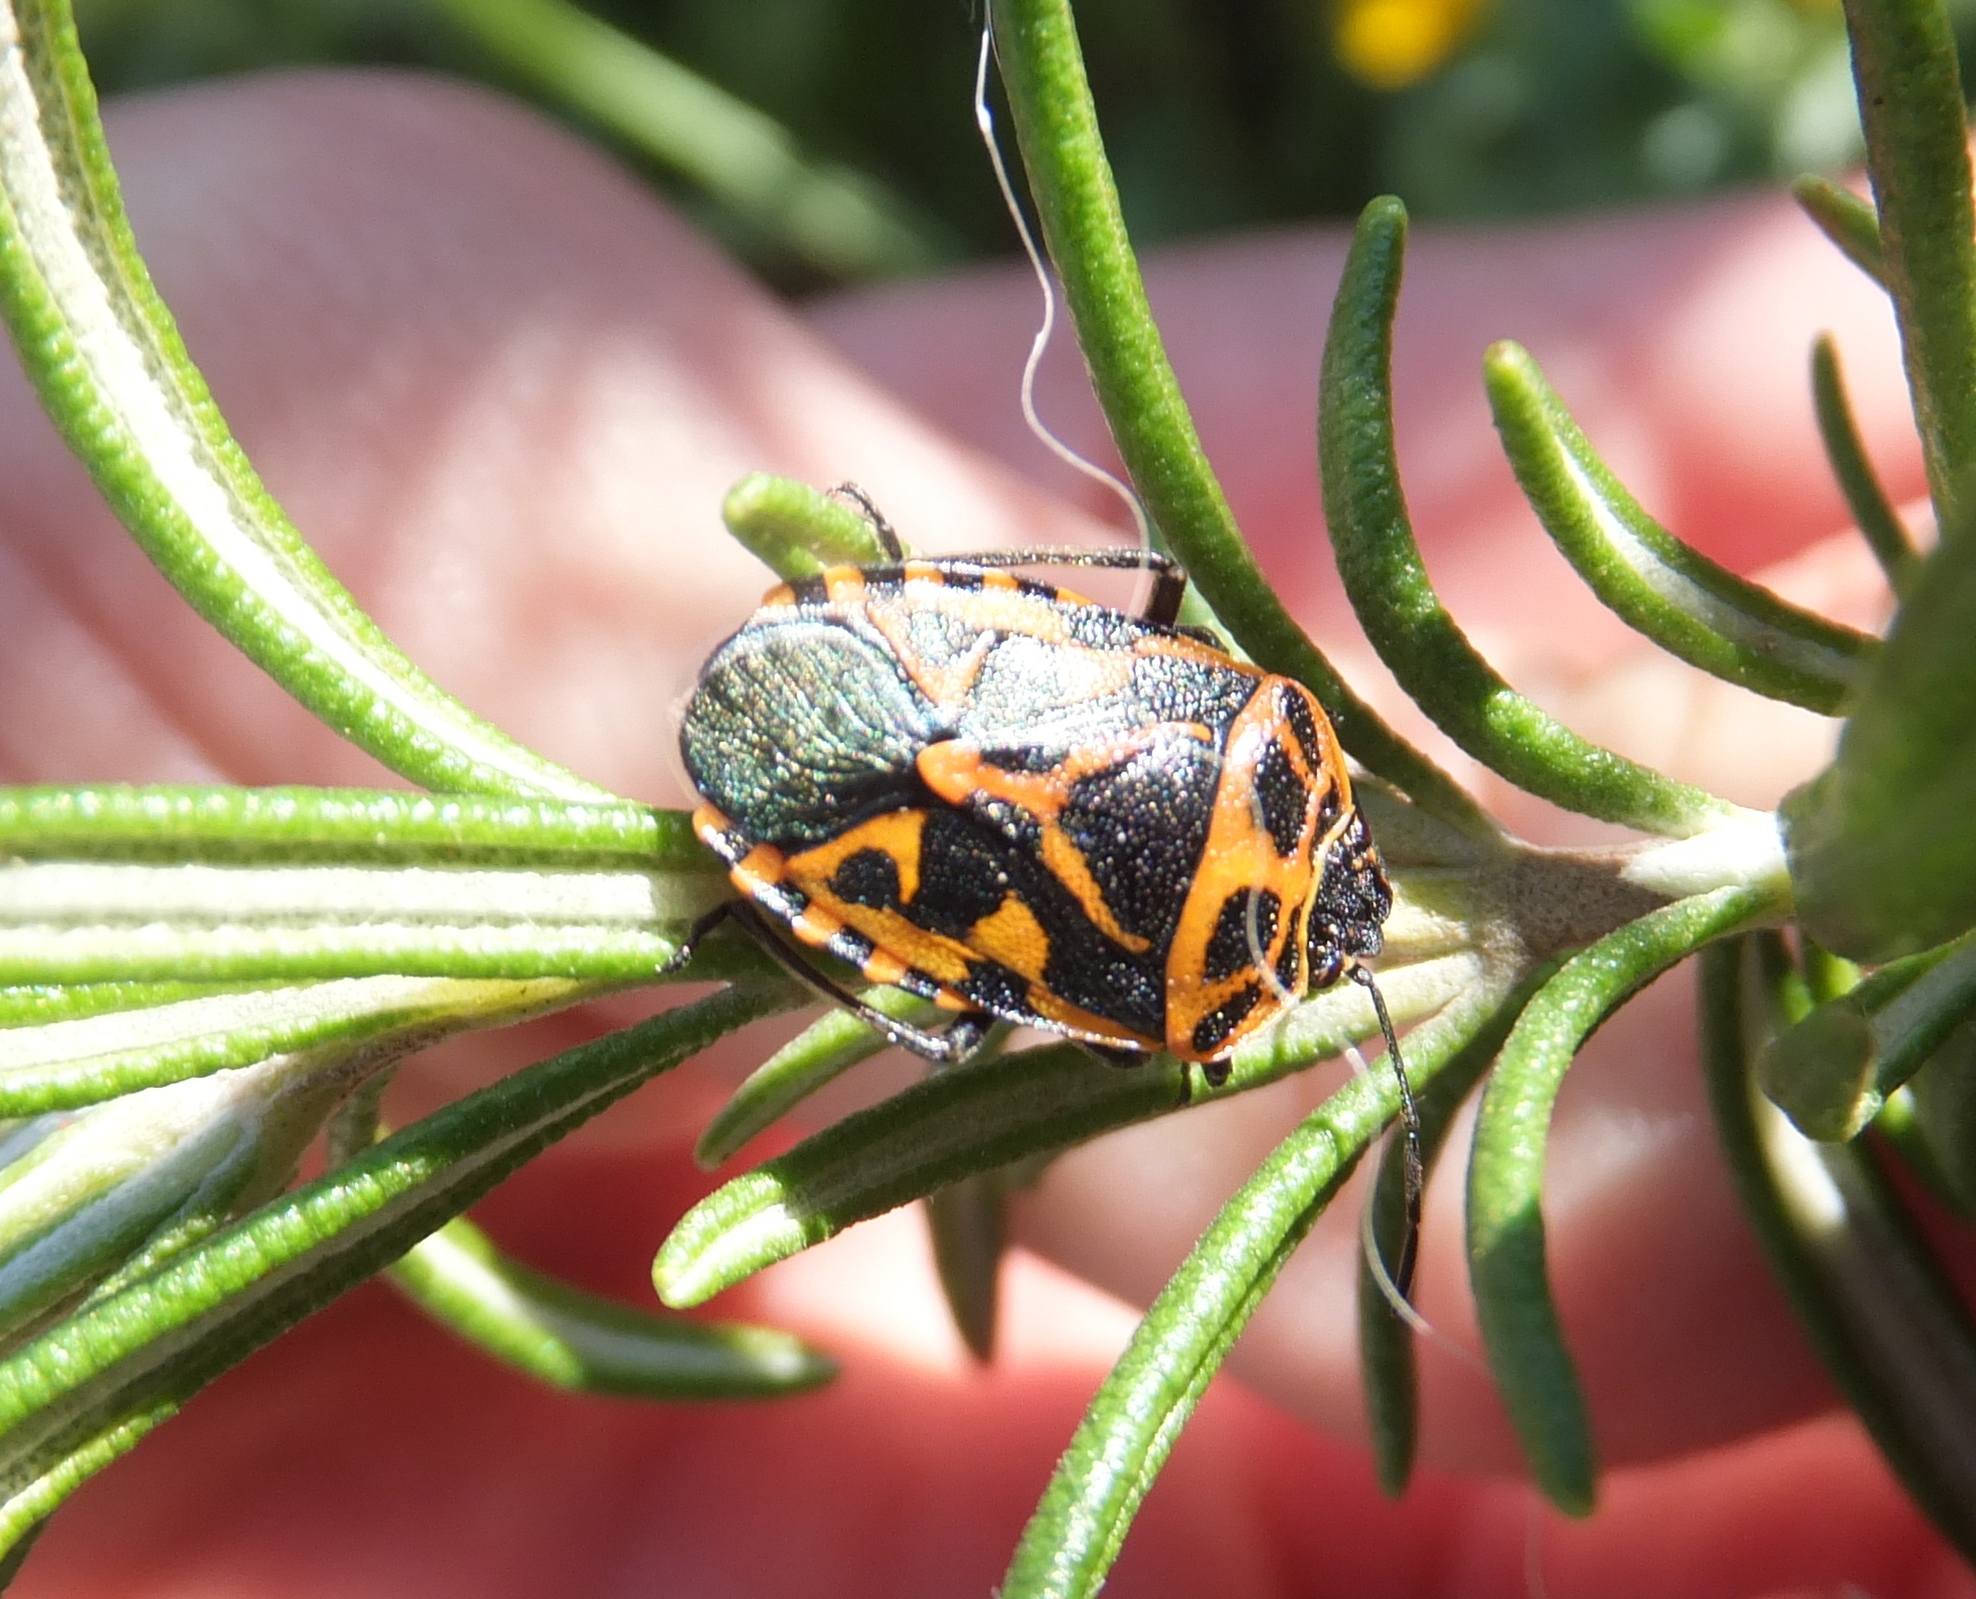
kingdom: Animalia
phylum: Arthropoda
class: Insecta
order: Hemiptera
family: Pentatomidae
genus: Eurydema
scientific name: Eurydema ventralis
